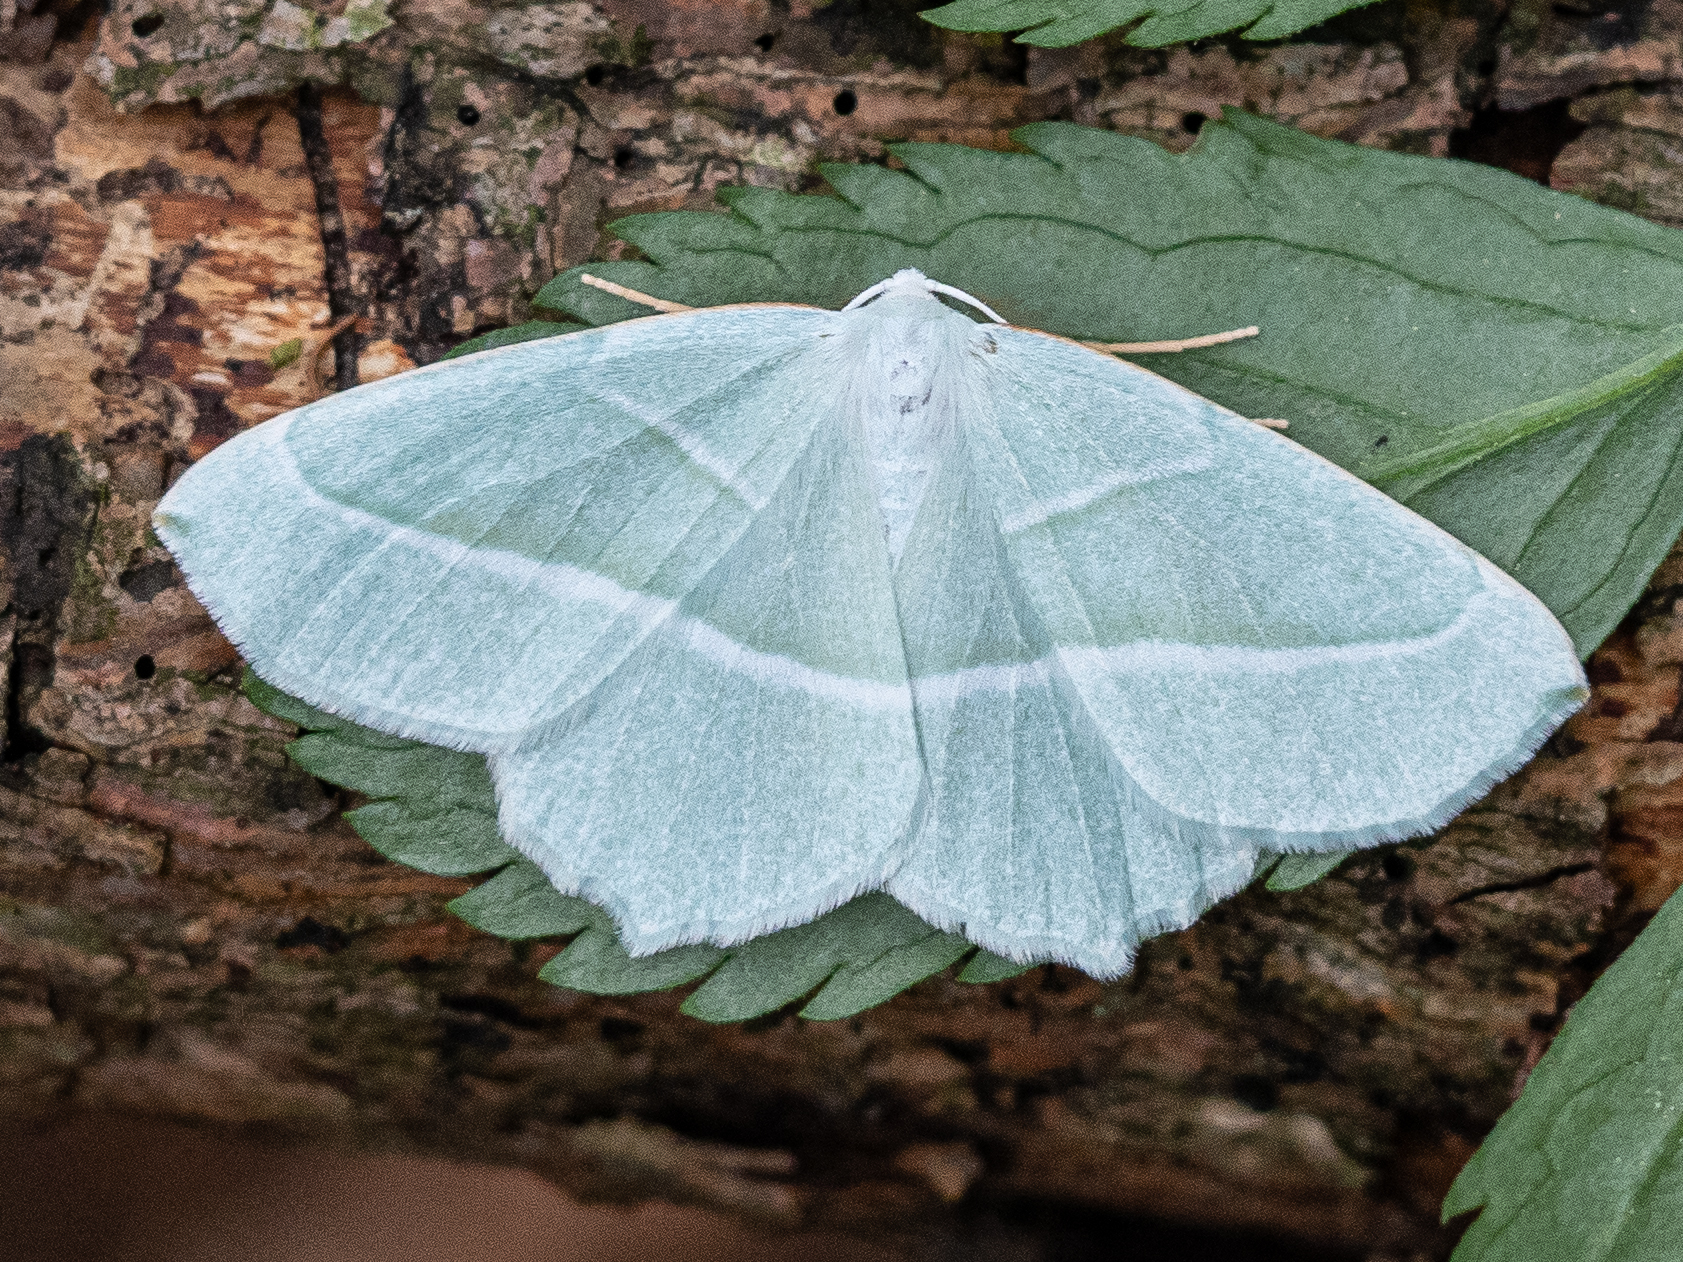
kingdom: Animalia
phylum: Arthropoda
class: Insecta
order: Lepidoptera
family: Geometridae
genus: Campaea
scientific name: Campaea margaritaria
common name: Light emerald
